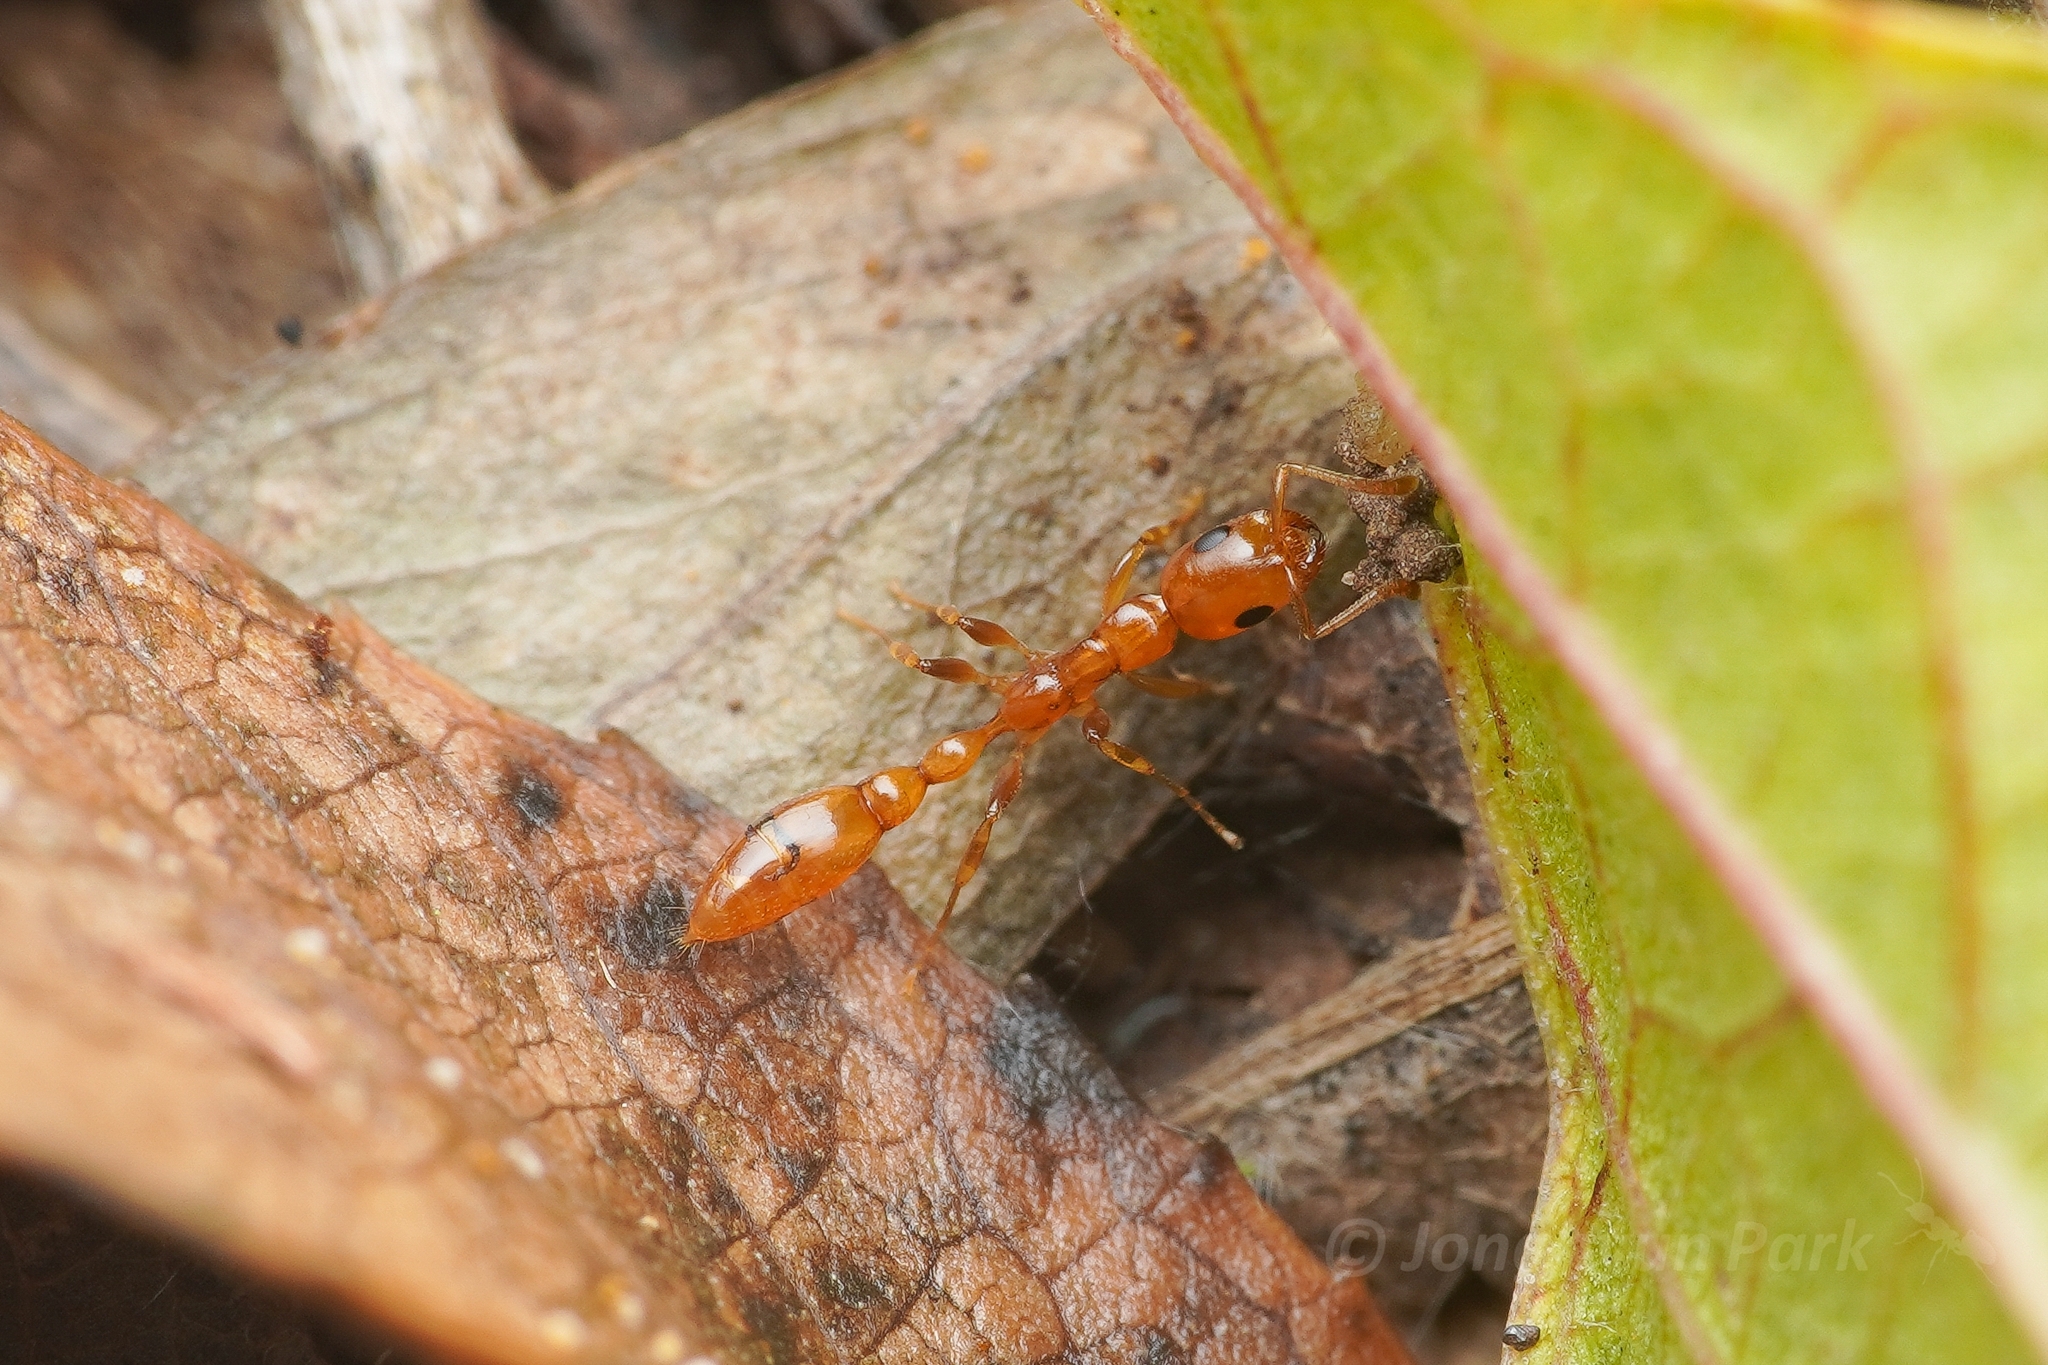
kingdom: Animalia
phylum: Arthropoda
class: Insecta
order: Hymenoptera
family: Formicidae
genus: Tetraponera
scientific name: Tetraponera emeryi
